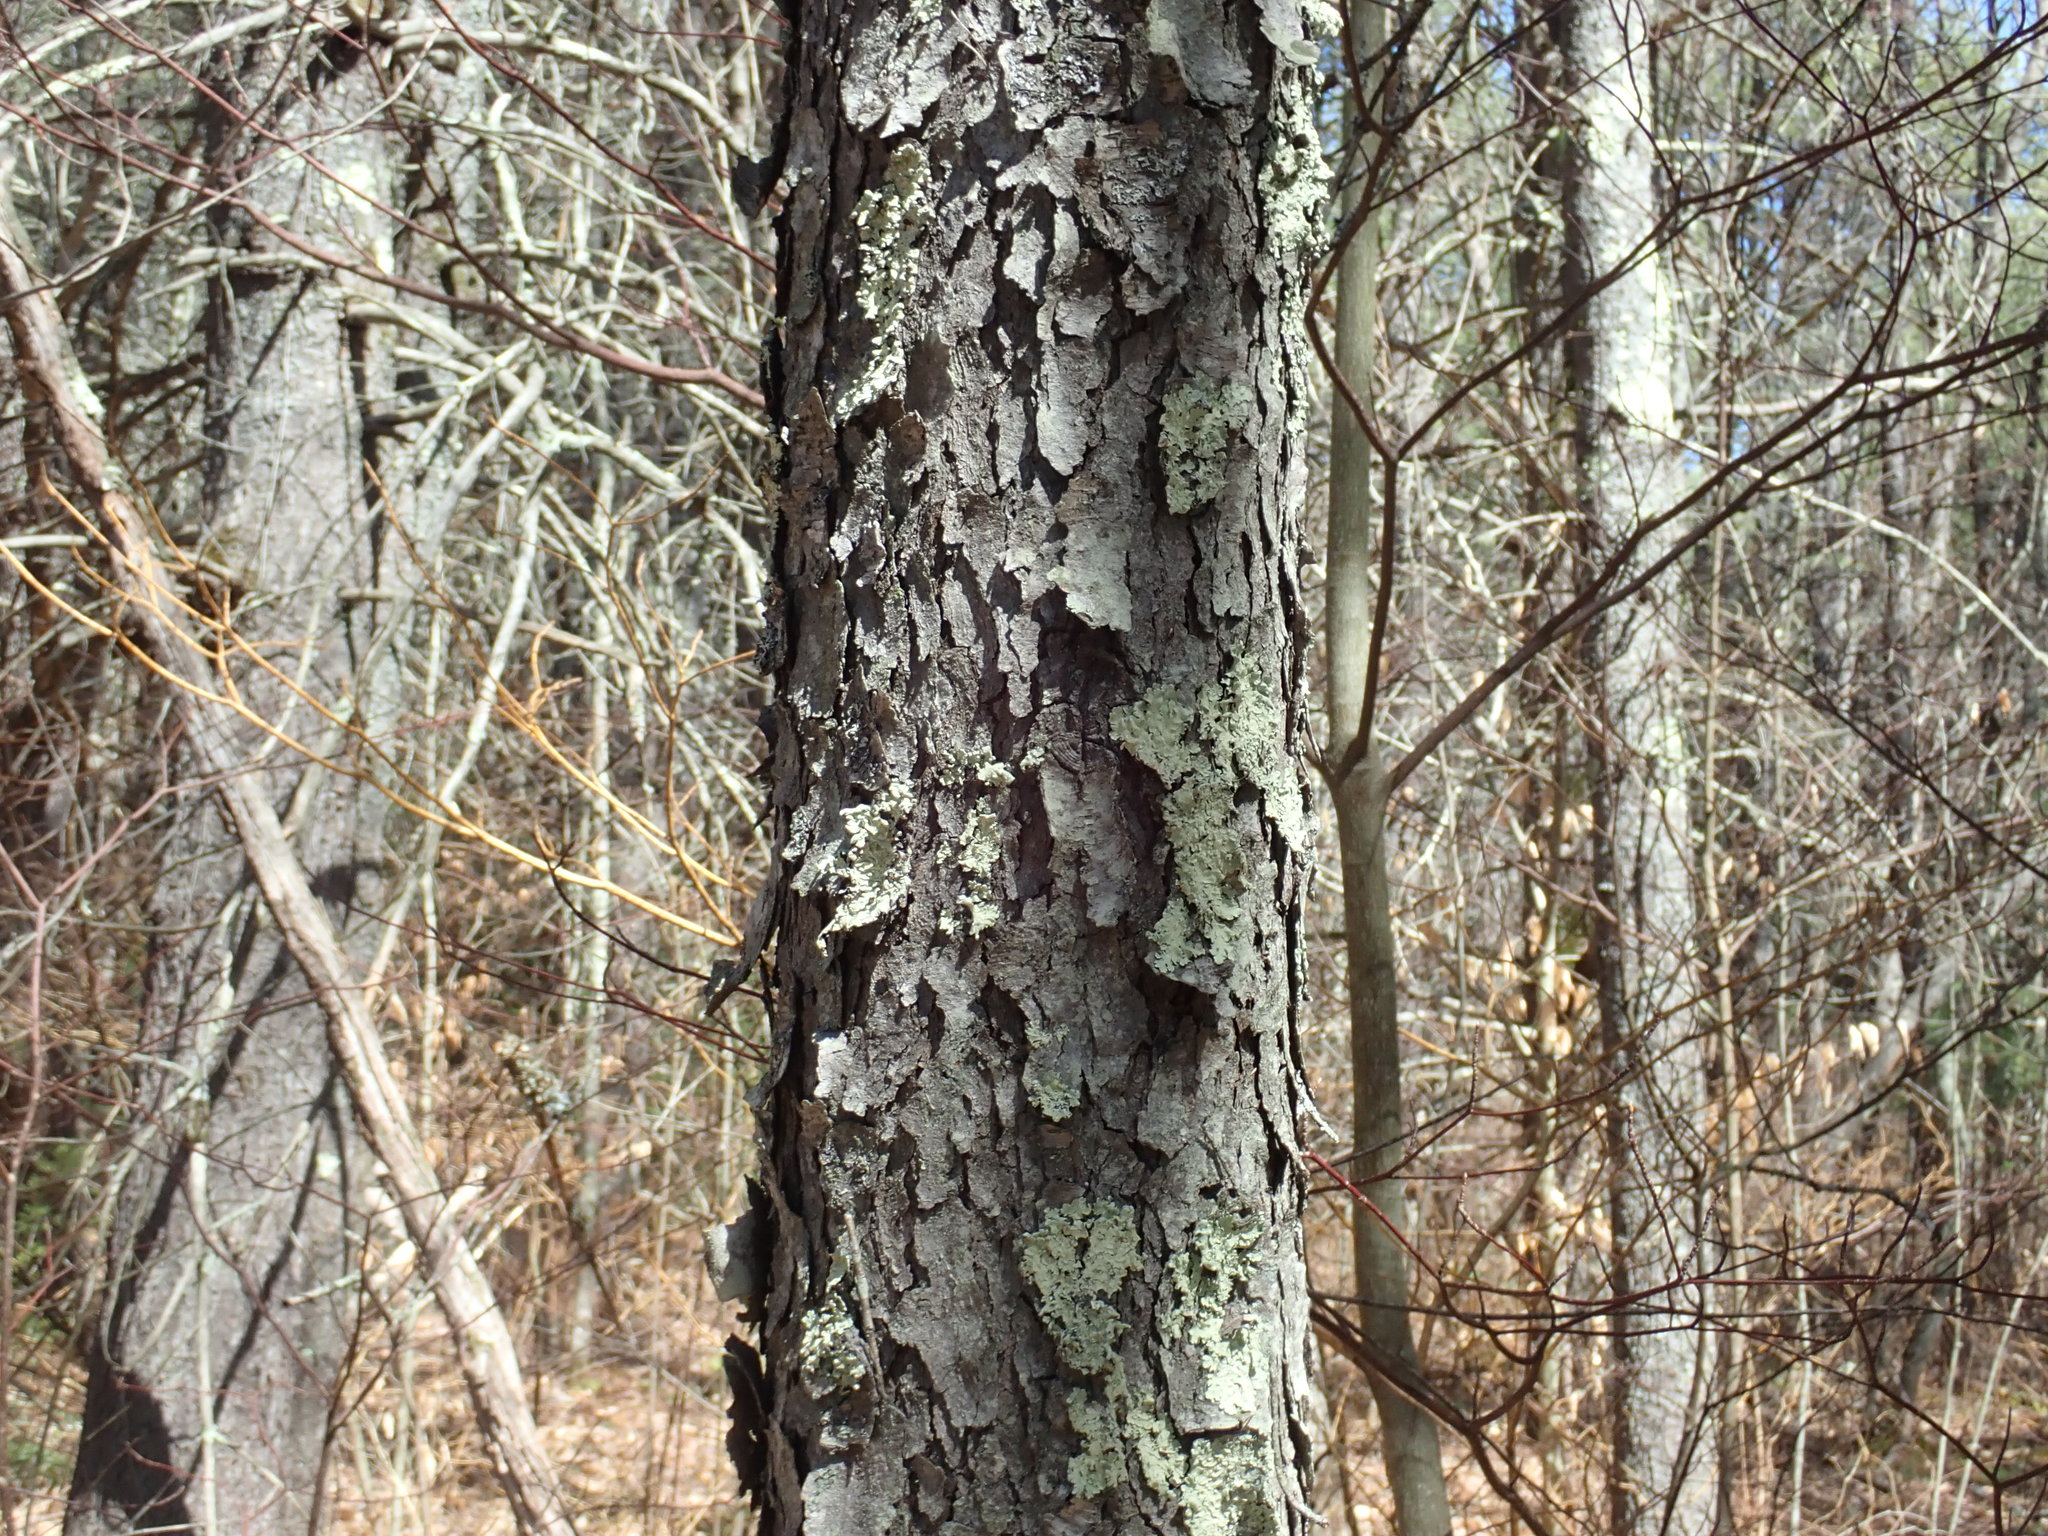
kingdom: Plantae
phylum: Tracheophyta
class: Magnoliopsida
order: Rosales
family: Rosaceae
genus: Prunus
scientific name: Prunus serotina
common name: Black cherry
